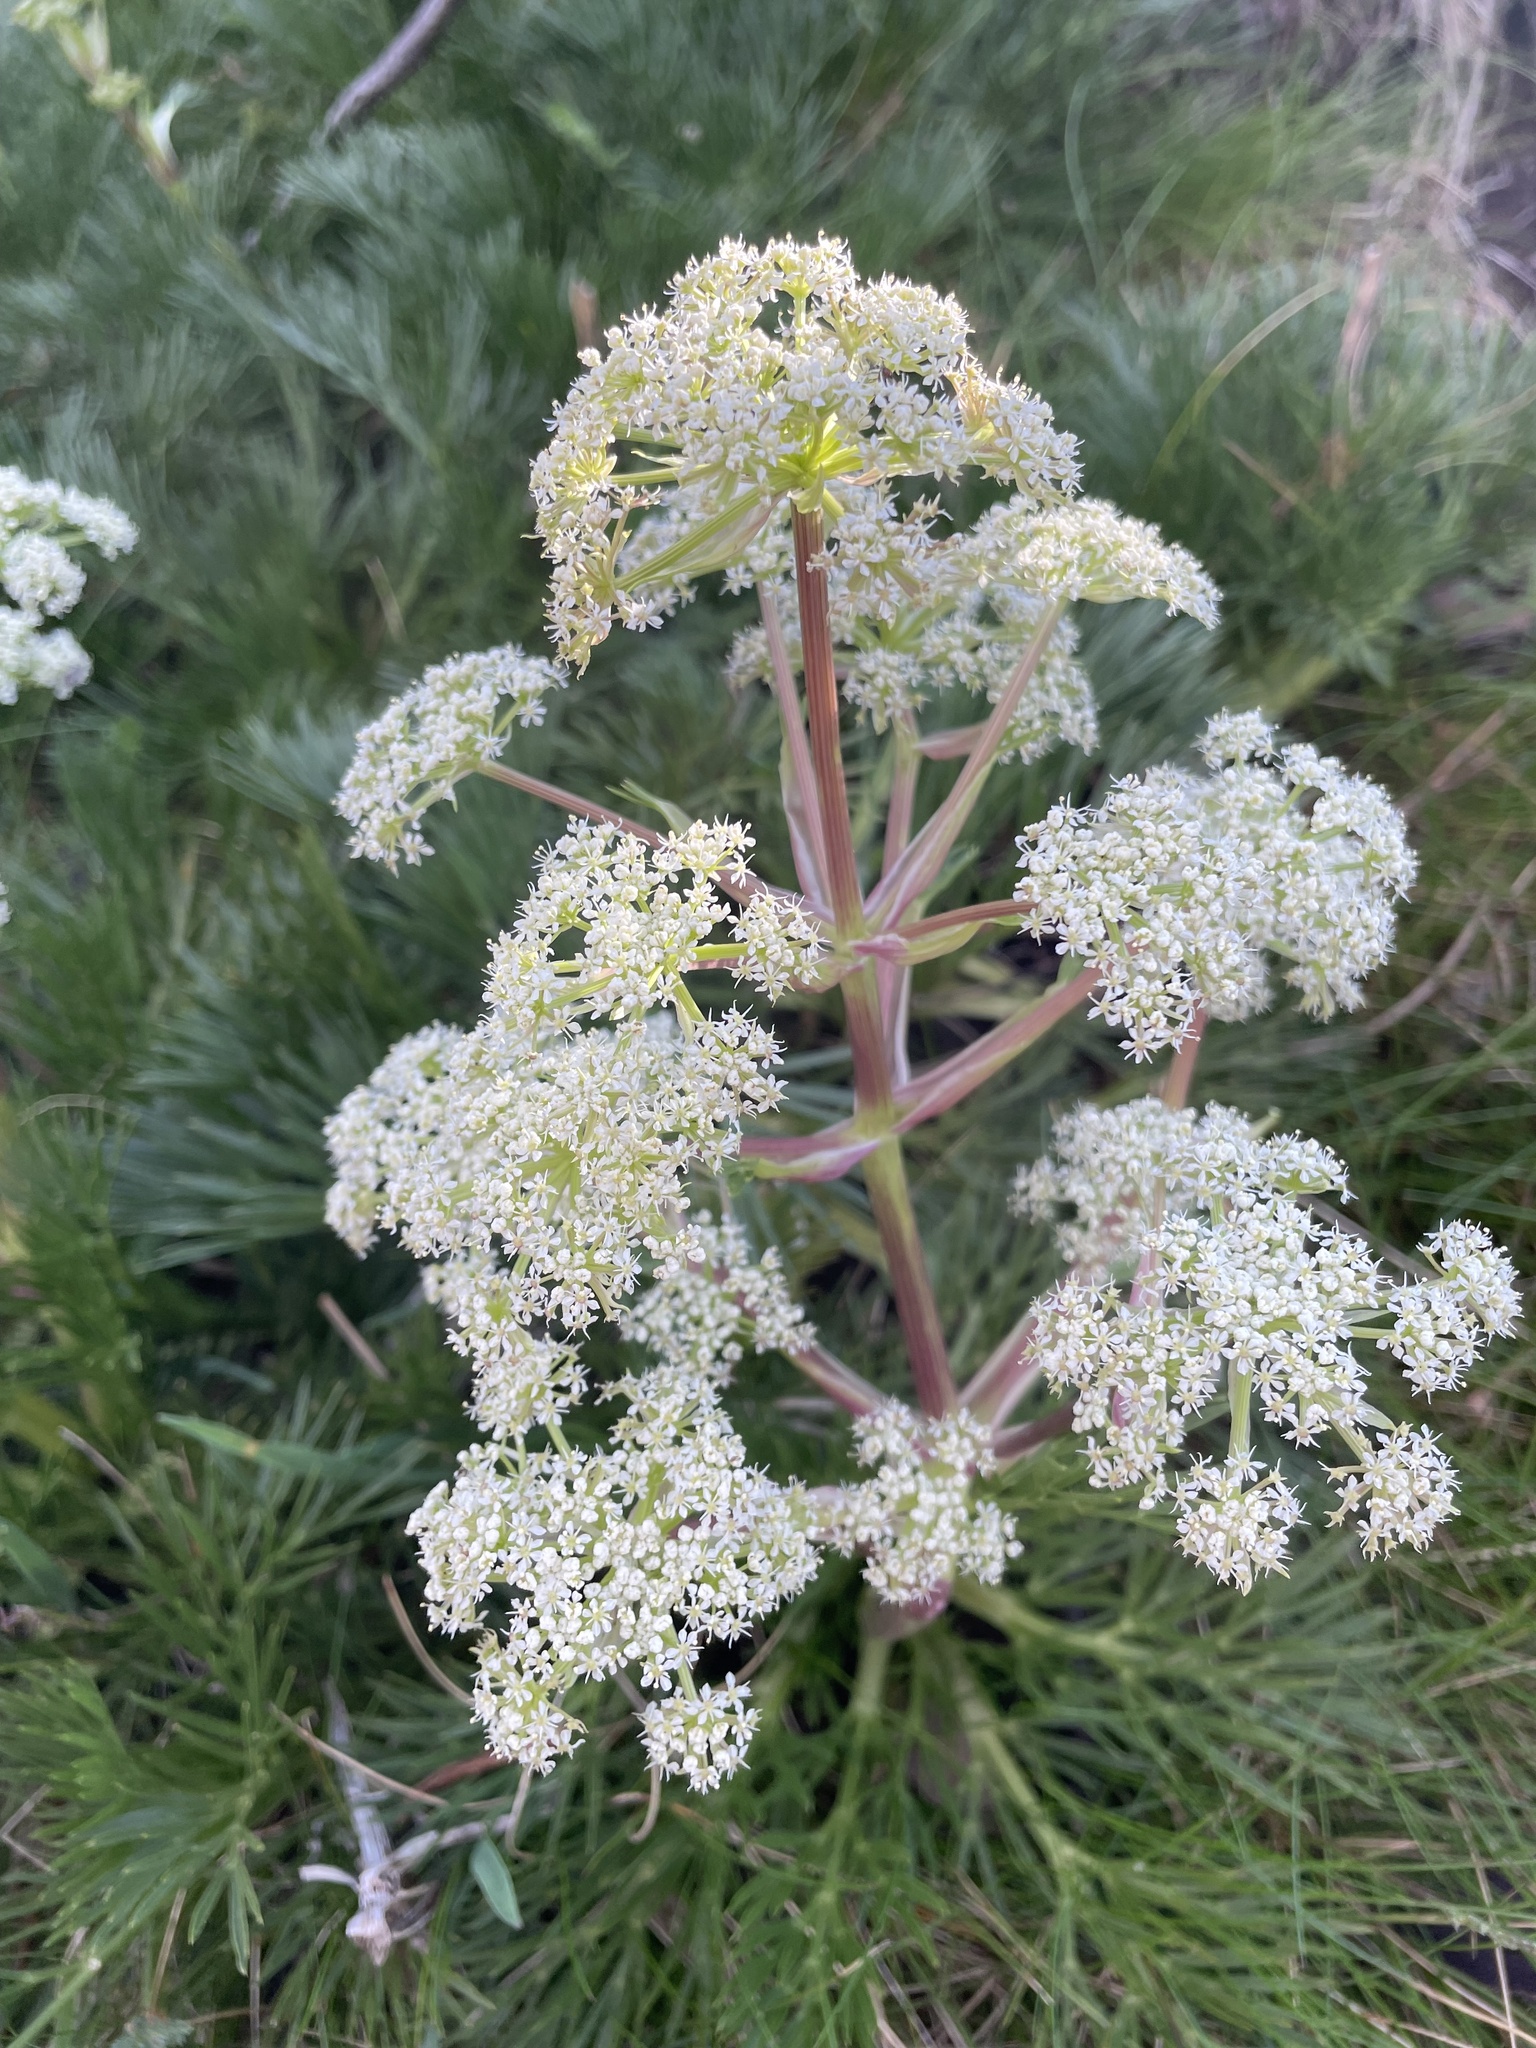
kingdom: Plantae
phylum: Tracheophyta
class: Magnoliopsida
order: Apiales
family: Apiaceae
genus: Aciphylla
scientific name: Aciphylla glacialis
